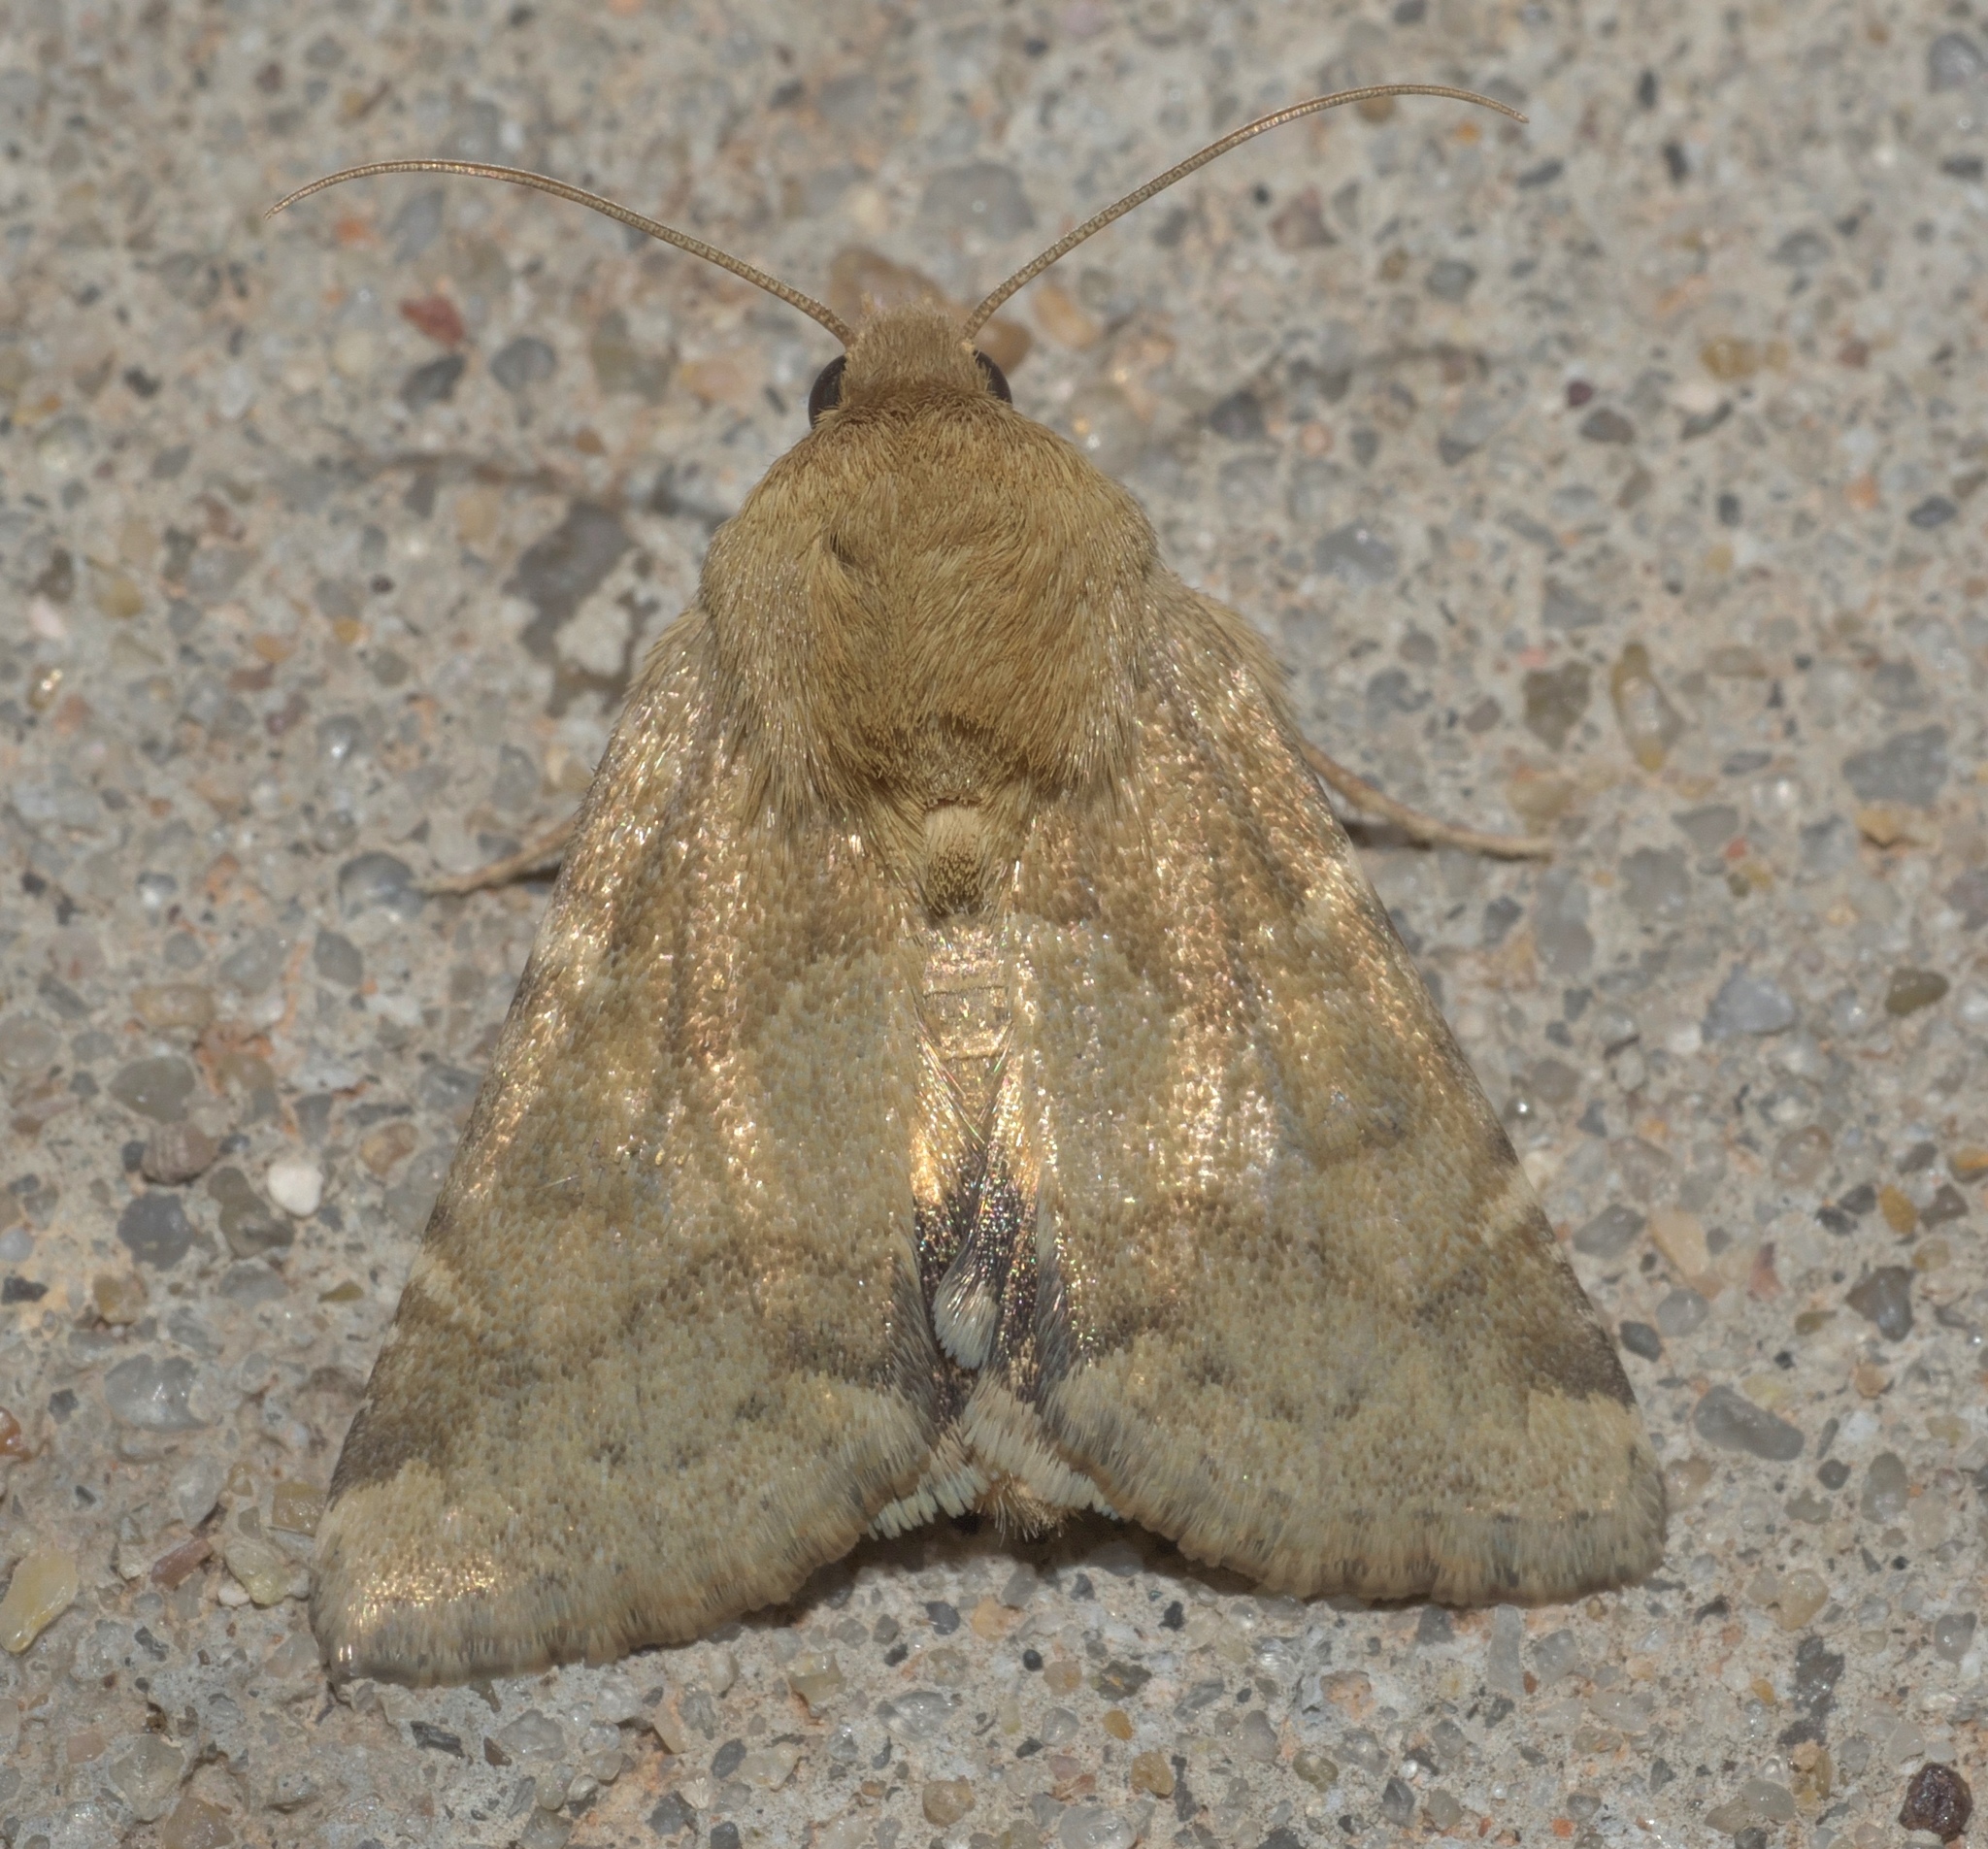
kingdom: Animalia
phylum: Arthropoda
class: Insecta
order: Lepidoptera
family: Noctuidae
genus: Helicoverpa
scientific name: Helicoverpa zea
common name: Bollworm
